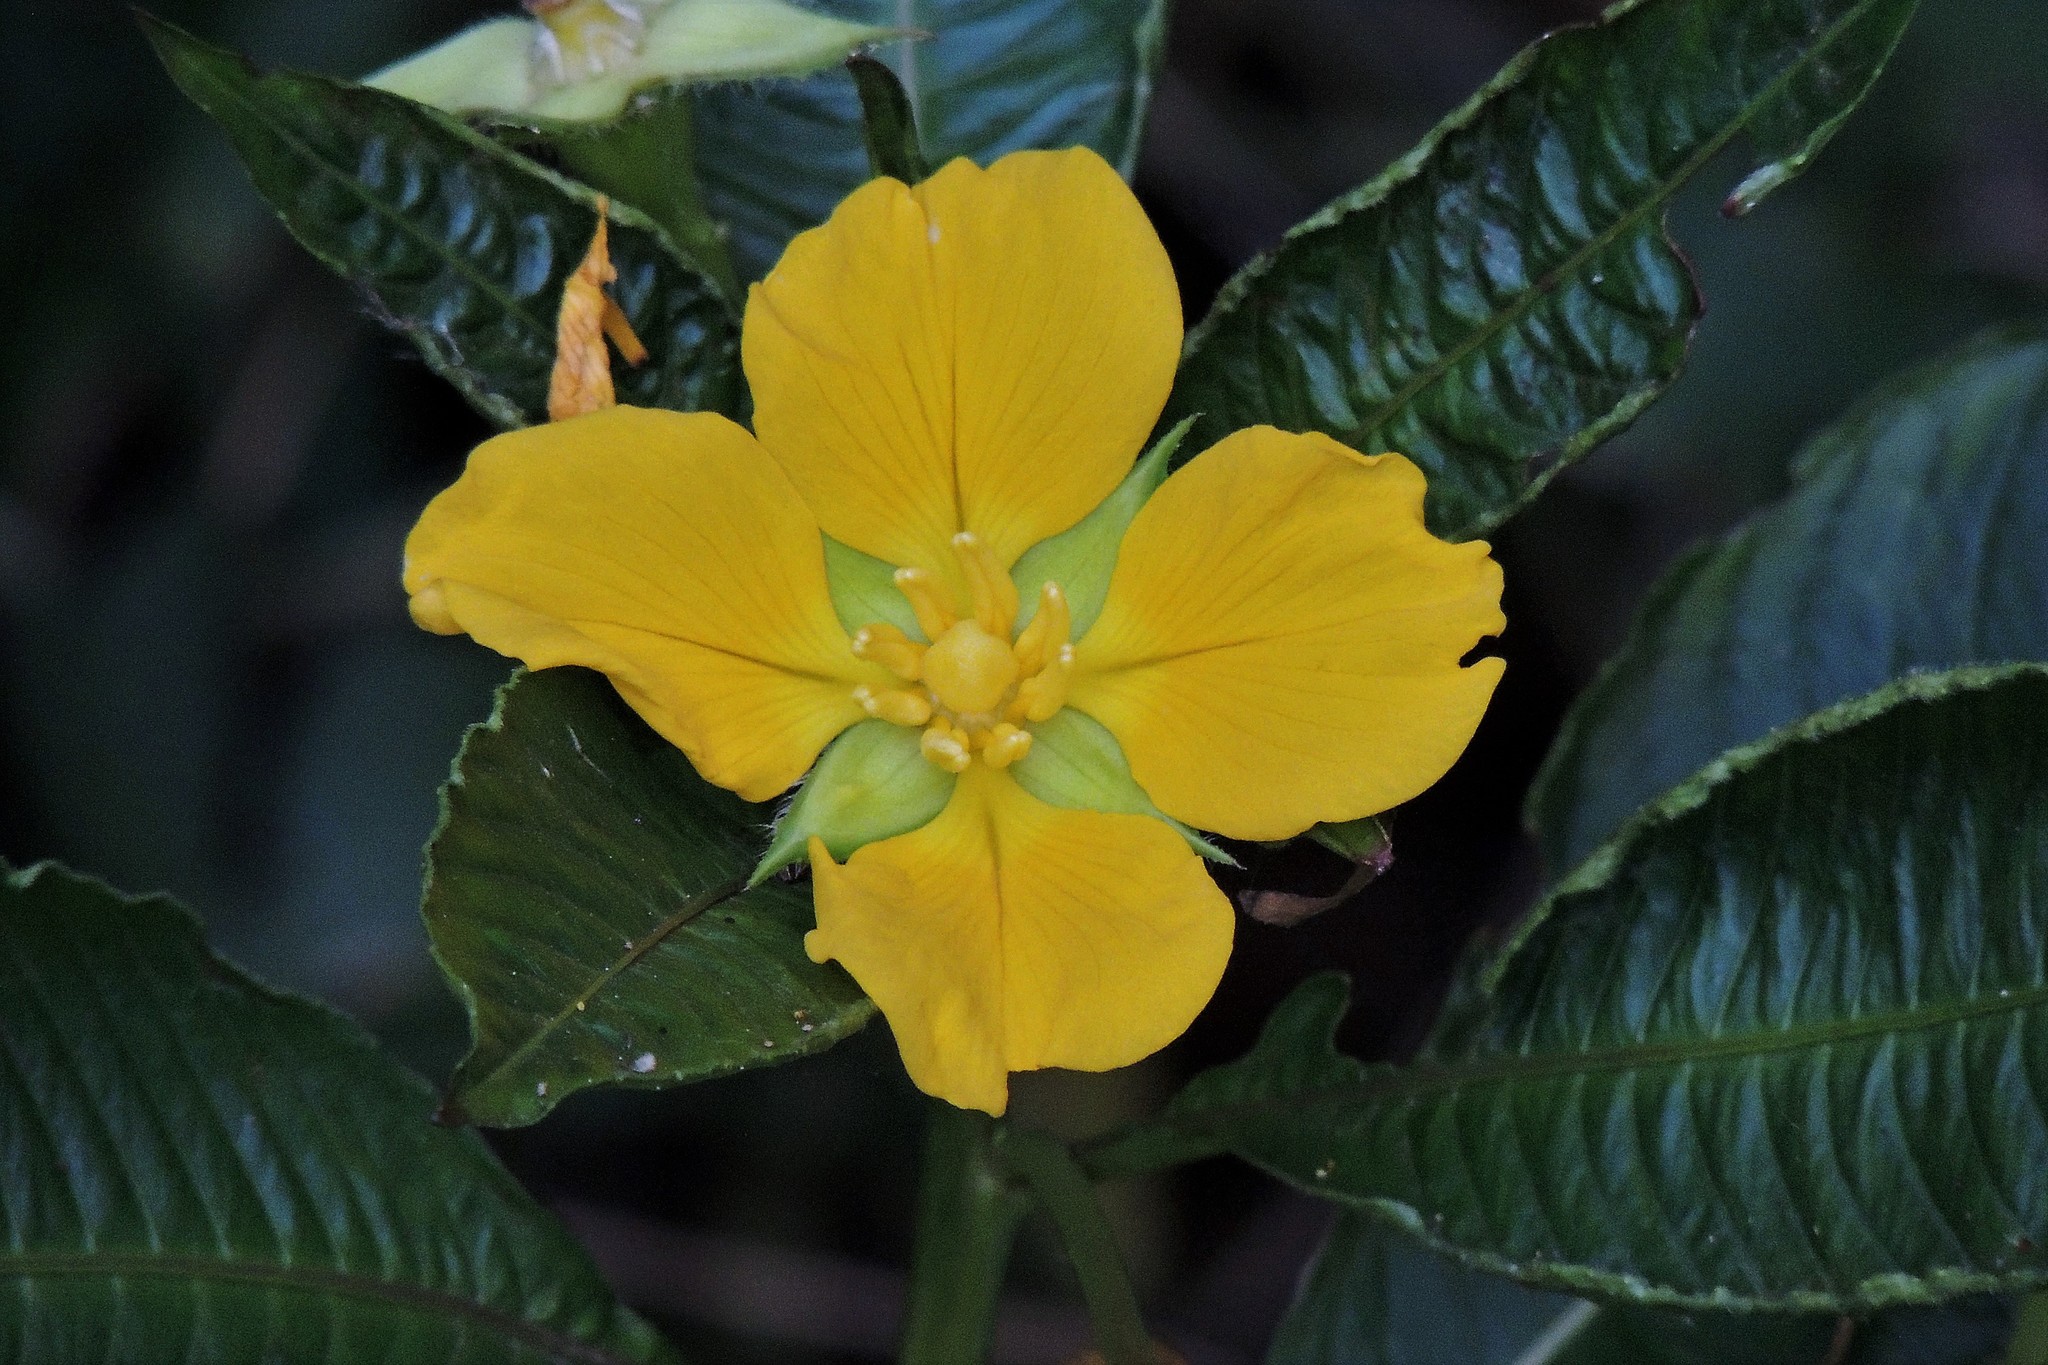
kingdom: Plantae
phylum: Tracheophyta
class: Magnoliopsida
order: Myrtales
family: Onagraceae
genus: Ludwigia
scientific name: Ludwigia elegans
